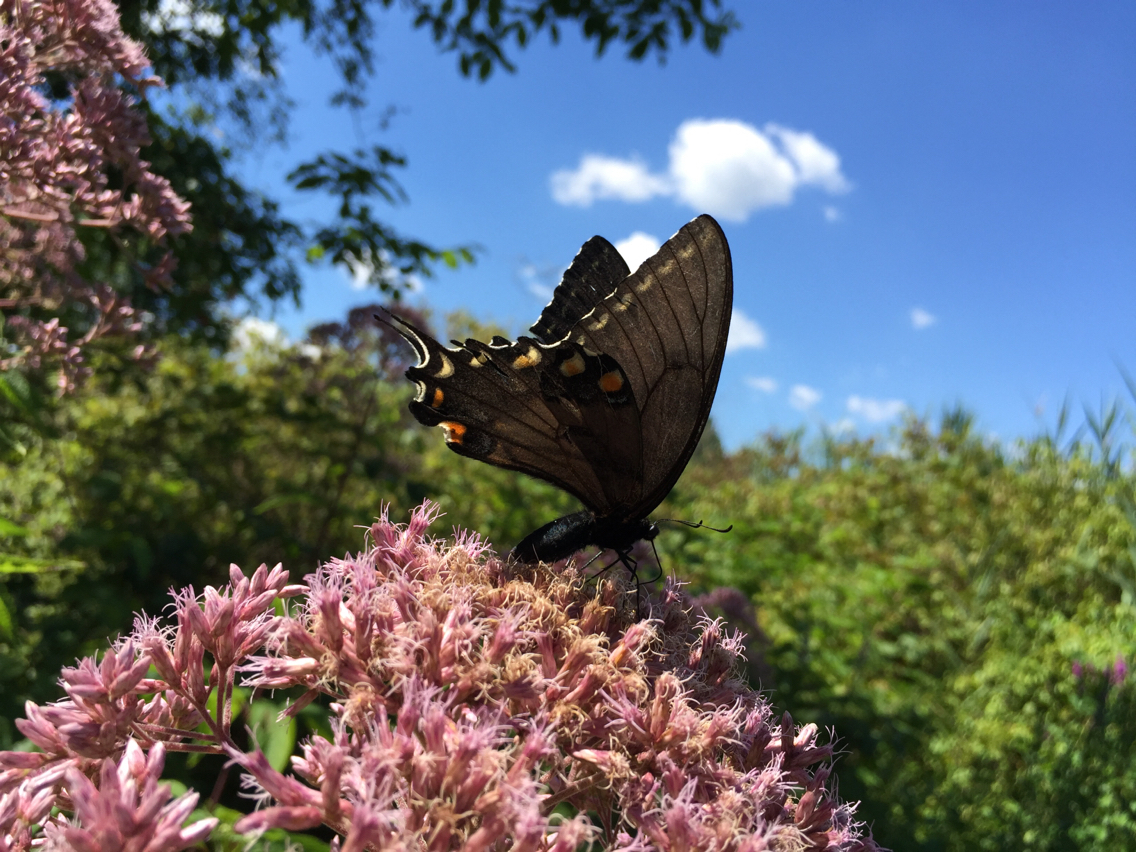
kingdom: Animalia
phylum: Arthropoda
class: Insecta
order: Lepidoptera
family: Papilionidae
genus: Papilio
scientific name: Papilio glaucus
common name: Tiger swallowtail
